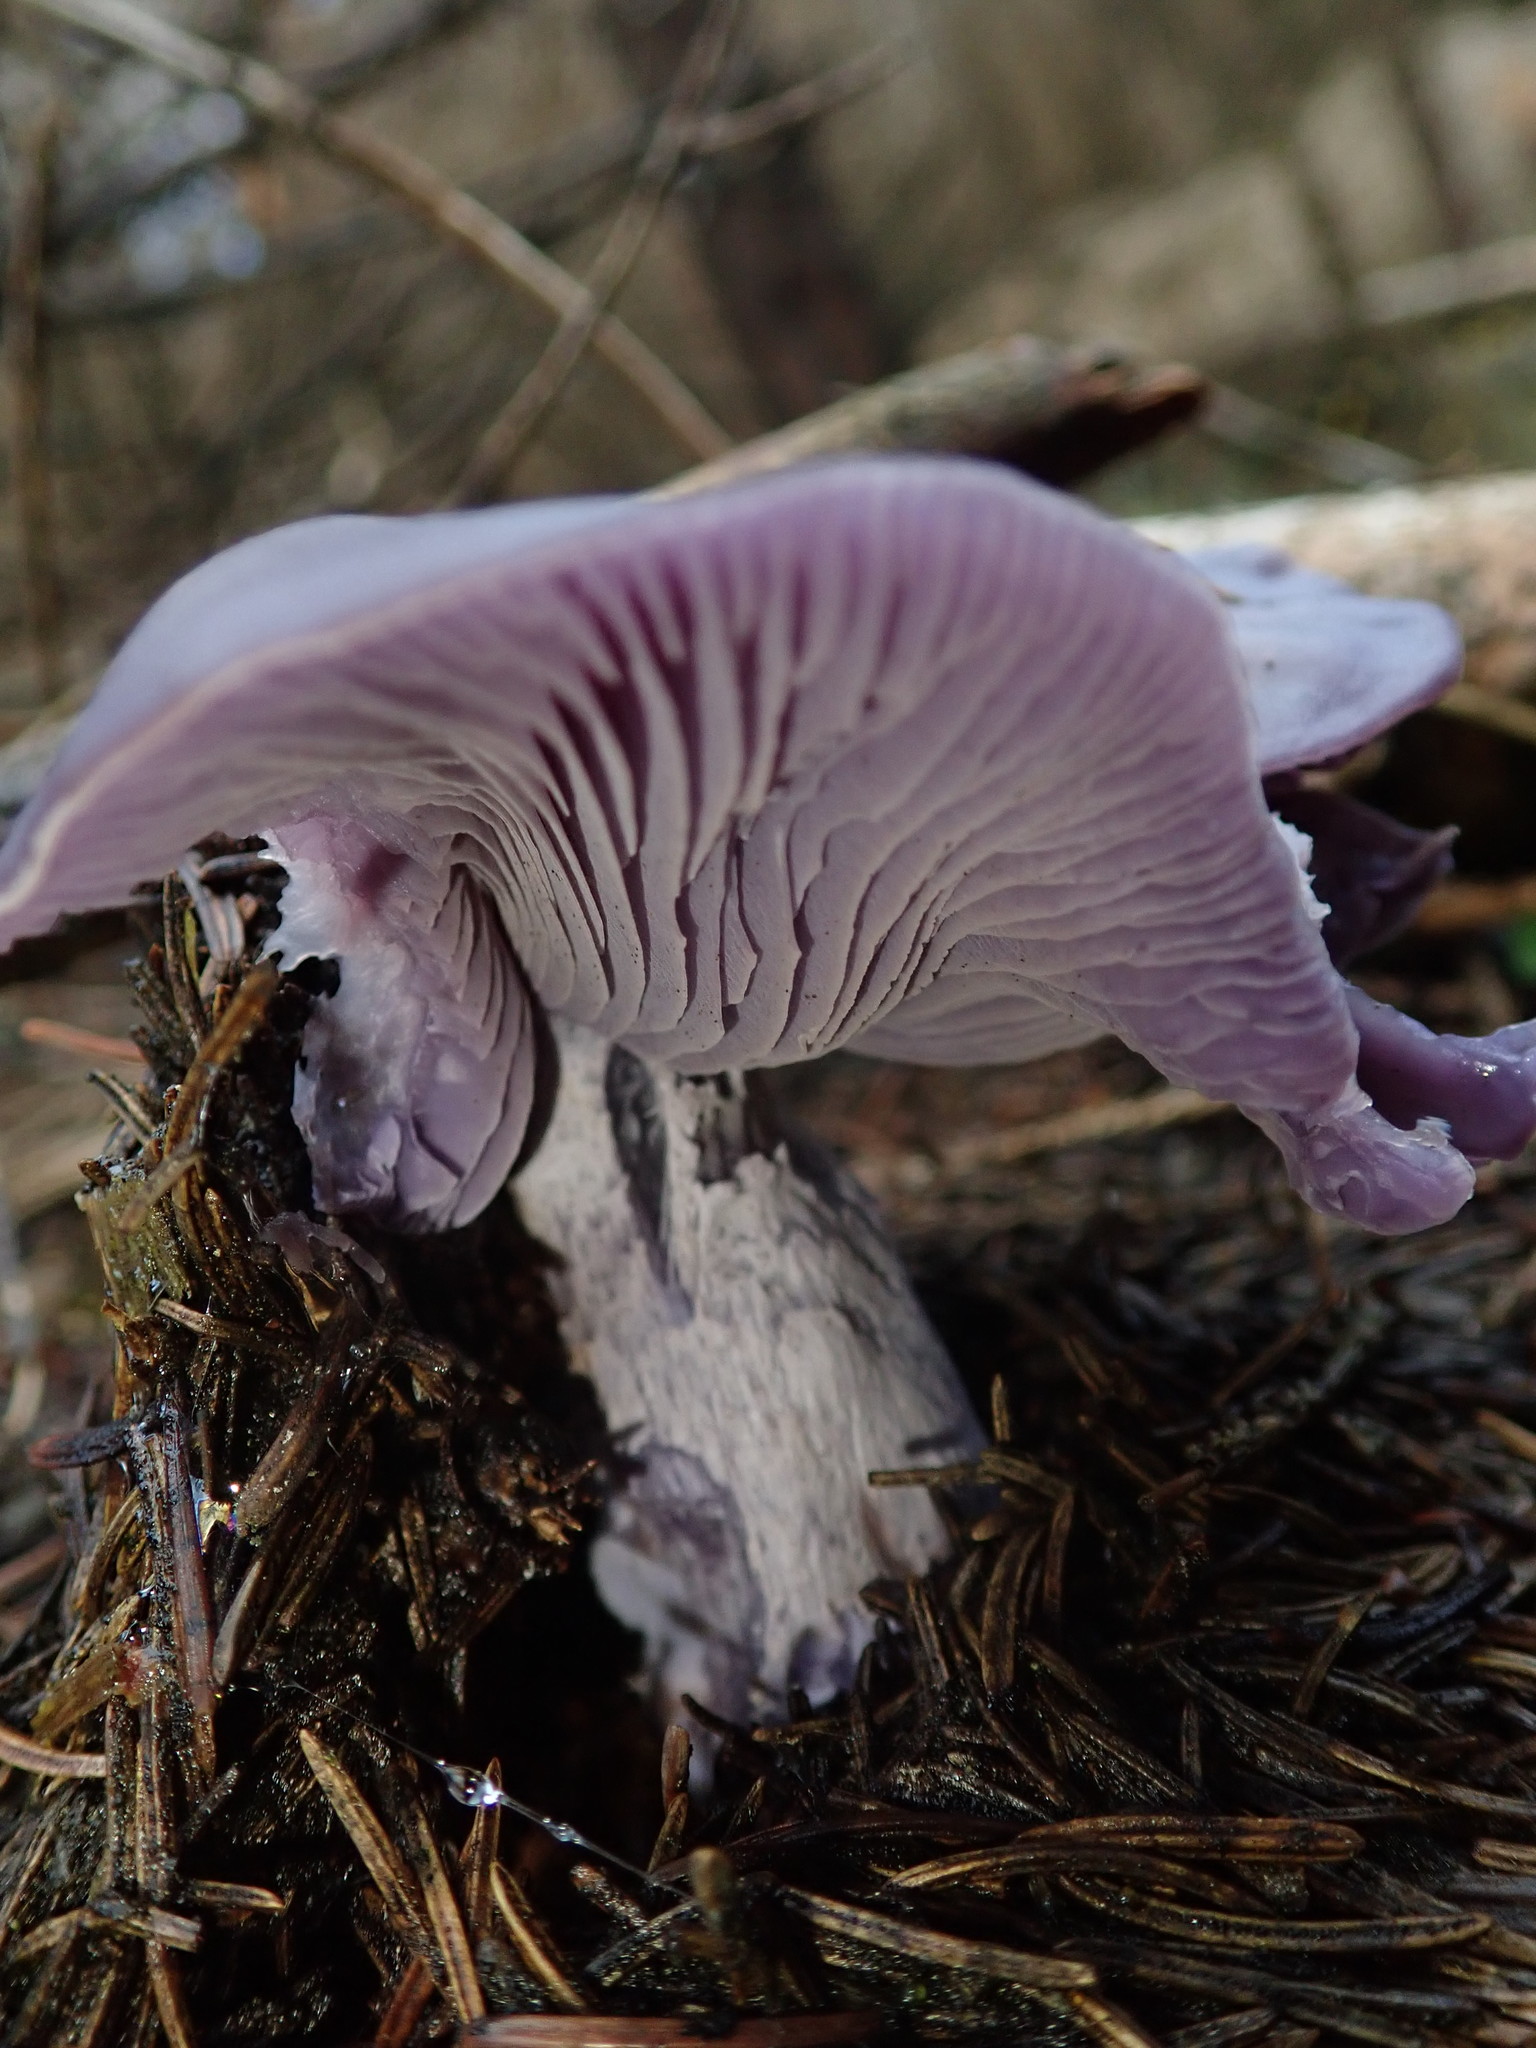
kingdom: Fungi
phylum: Basidiomycota
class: Agaricomycetes
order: Agaricales
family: Tricholomataceae
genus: Collybia
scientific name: Collybia
